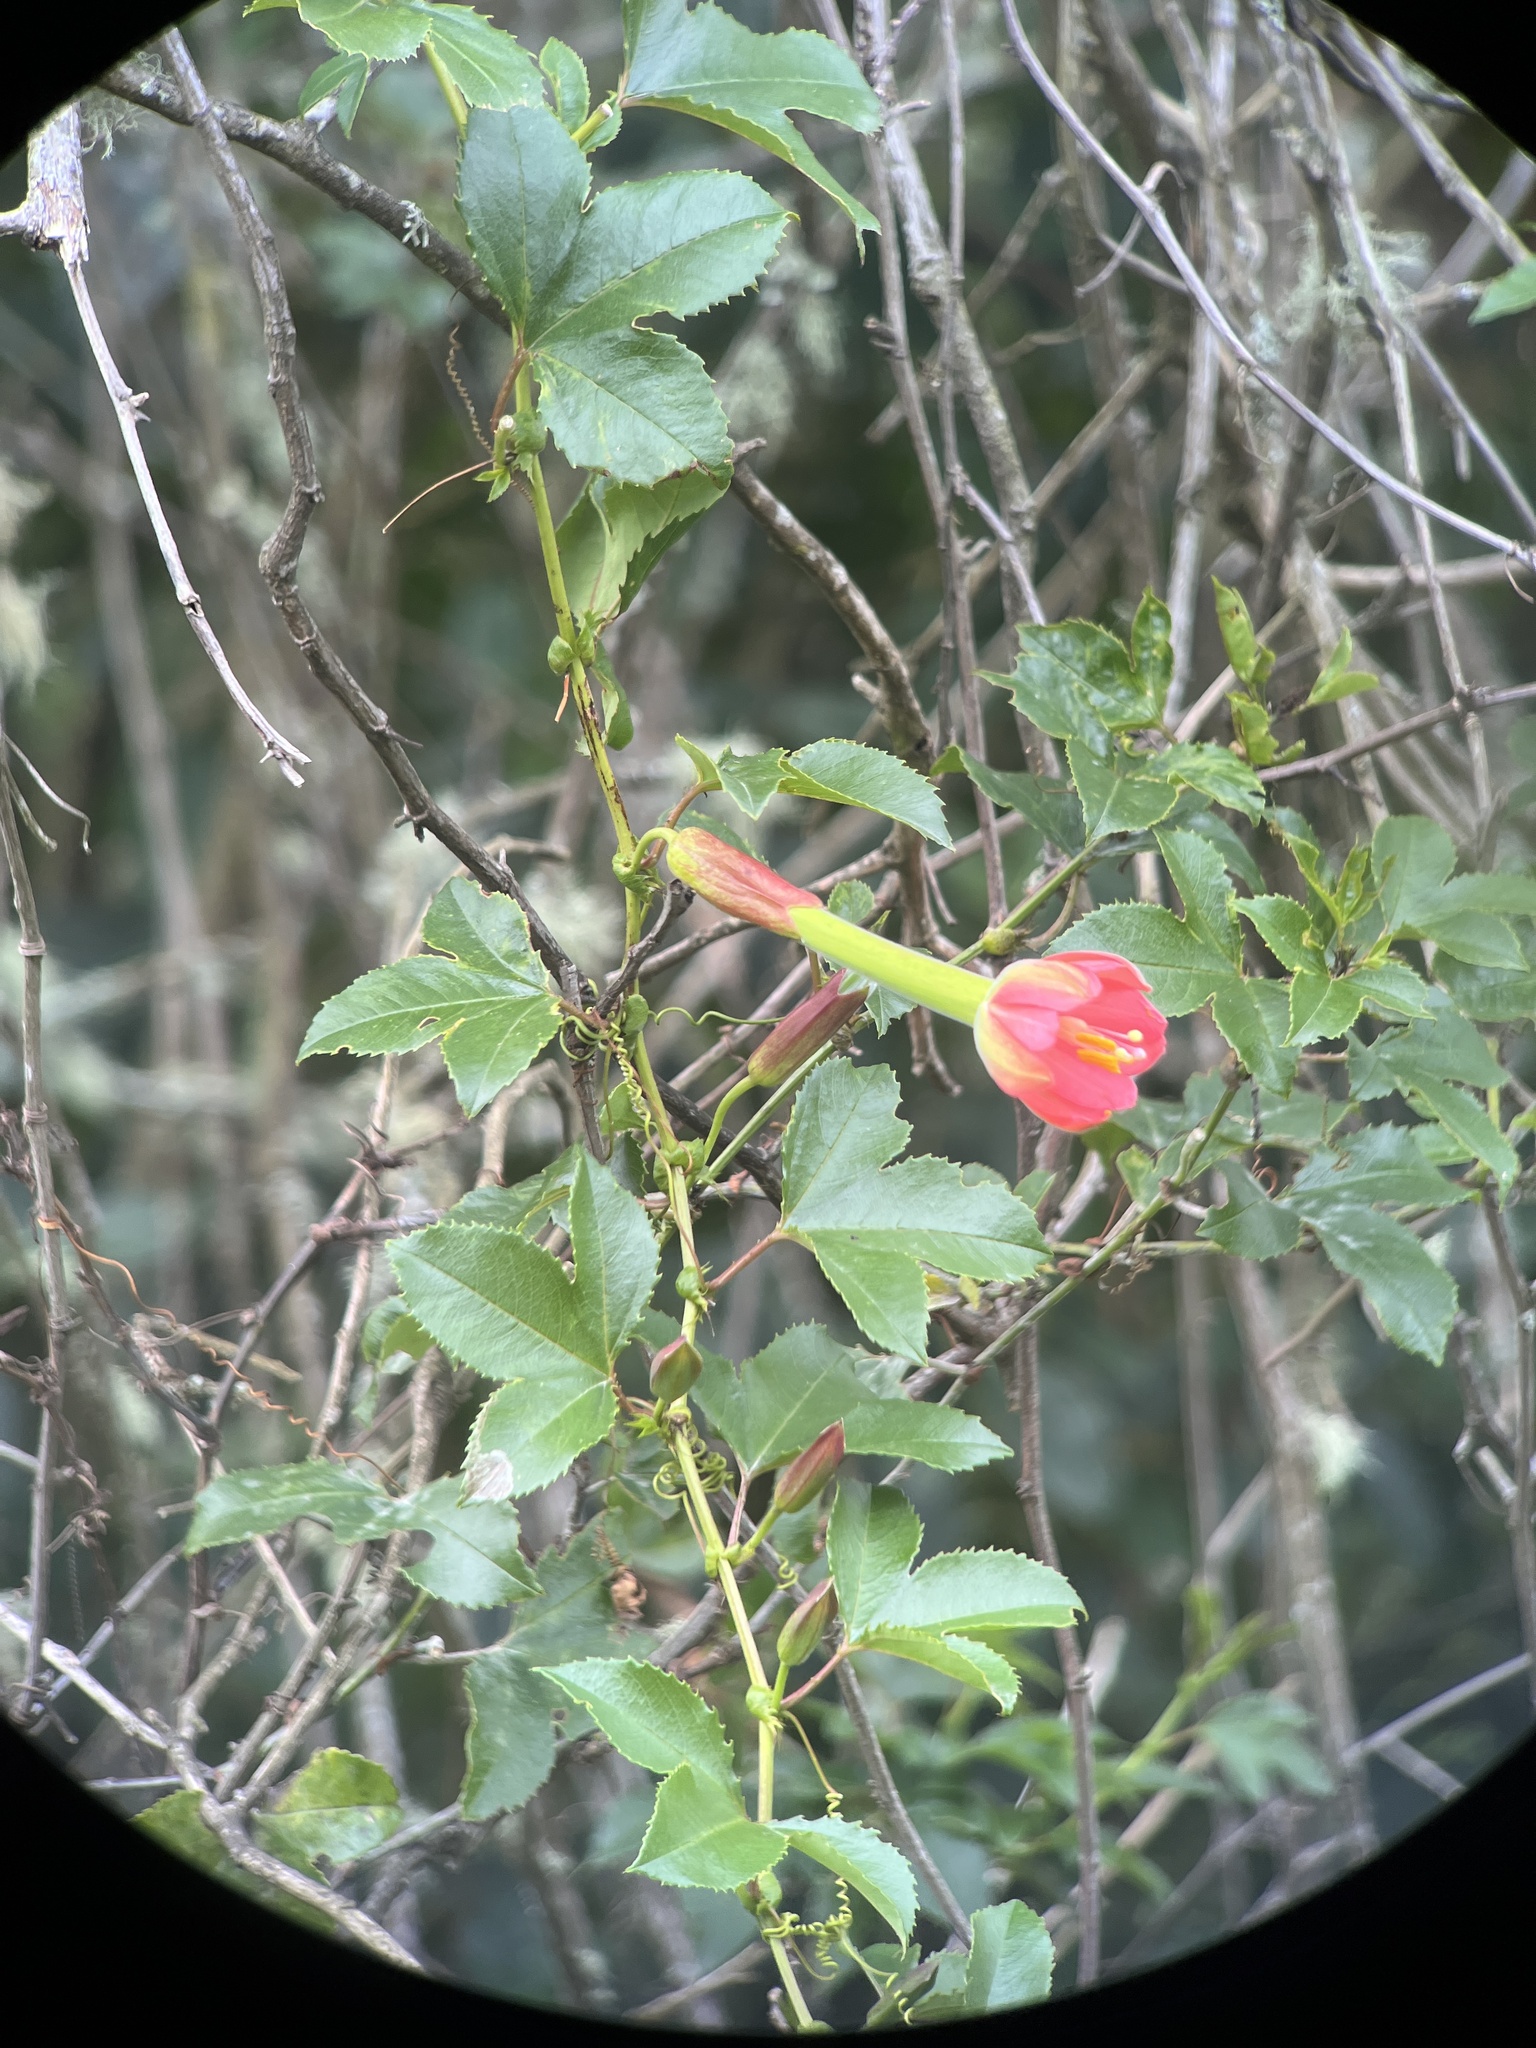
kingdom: Plantae
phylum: Tracheophyta
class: Magnoliopsida
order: Malpighiales
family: Passifloraceae
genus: Passiflora
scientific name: Passiflora mixta
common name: Passion flower
